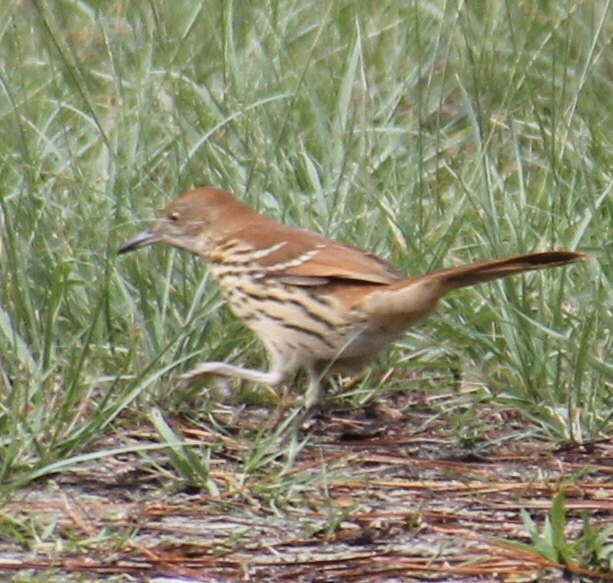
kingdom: Animalia
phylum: Chordata
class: Aves
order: Passeriformes
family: Mimidae
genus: Toxostoma
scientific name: Toxostoma rufum
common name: Brown thrasher
